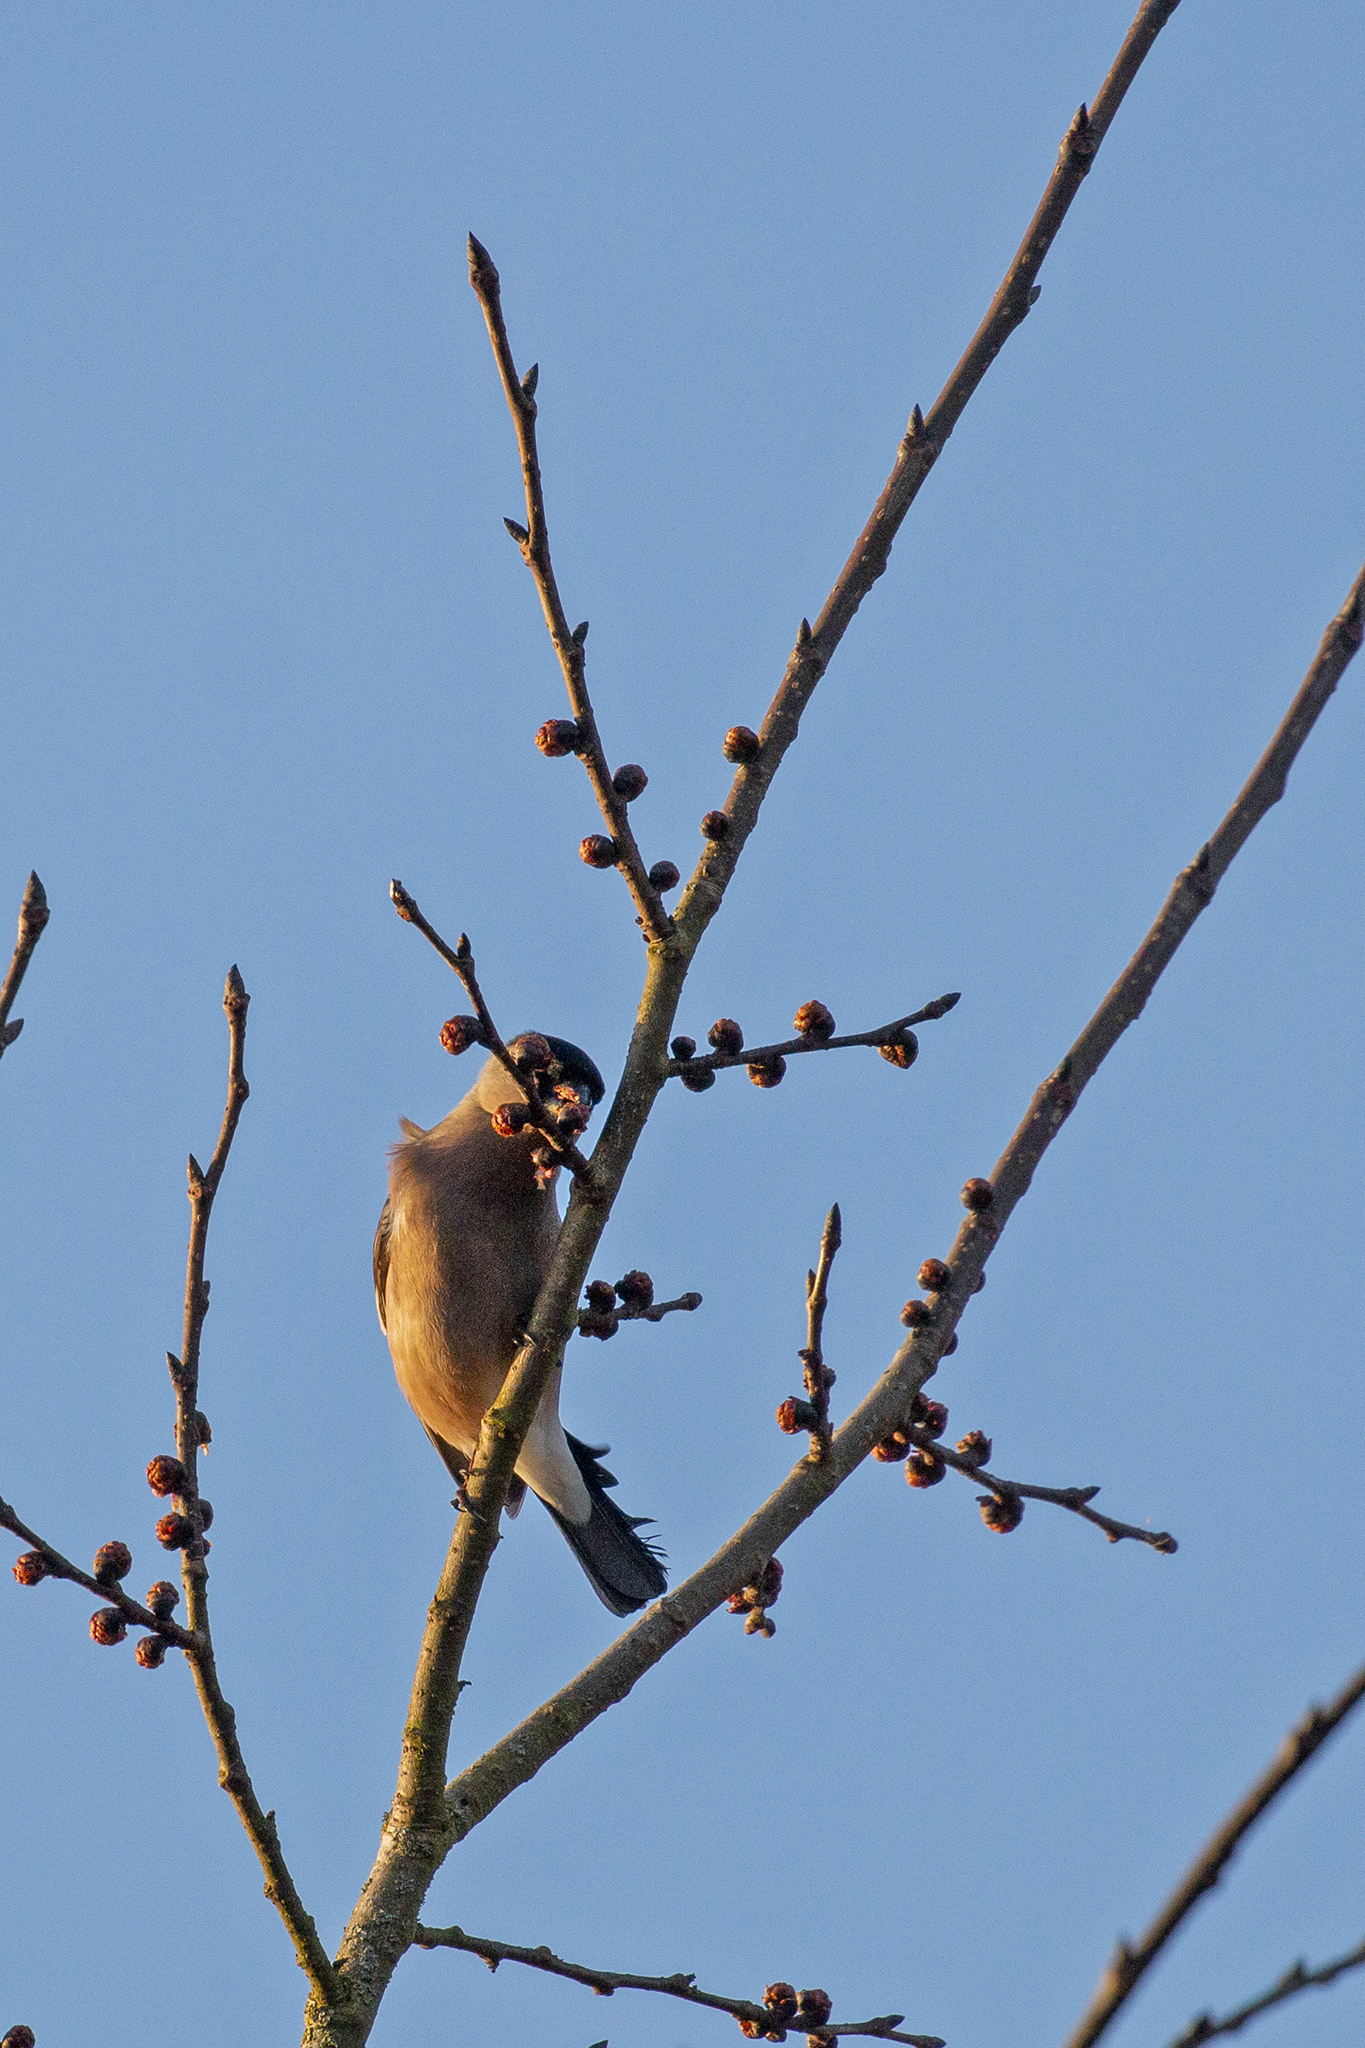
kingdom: Animalia
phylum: Chordata
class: Aves
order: Passeriformes
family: Fringillidae
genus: Pyrrhula
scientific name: Pyrrhula pyrrhula
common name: Eurasian bullfinch
